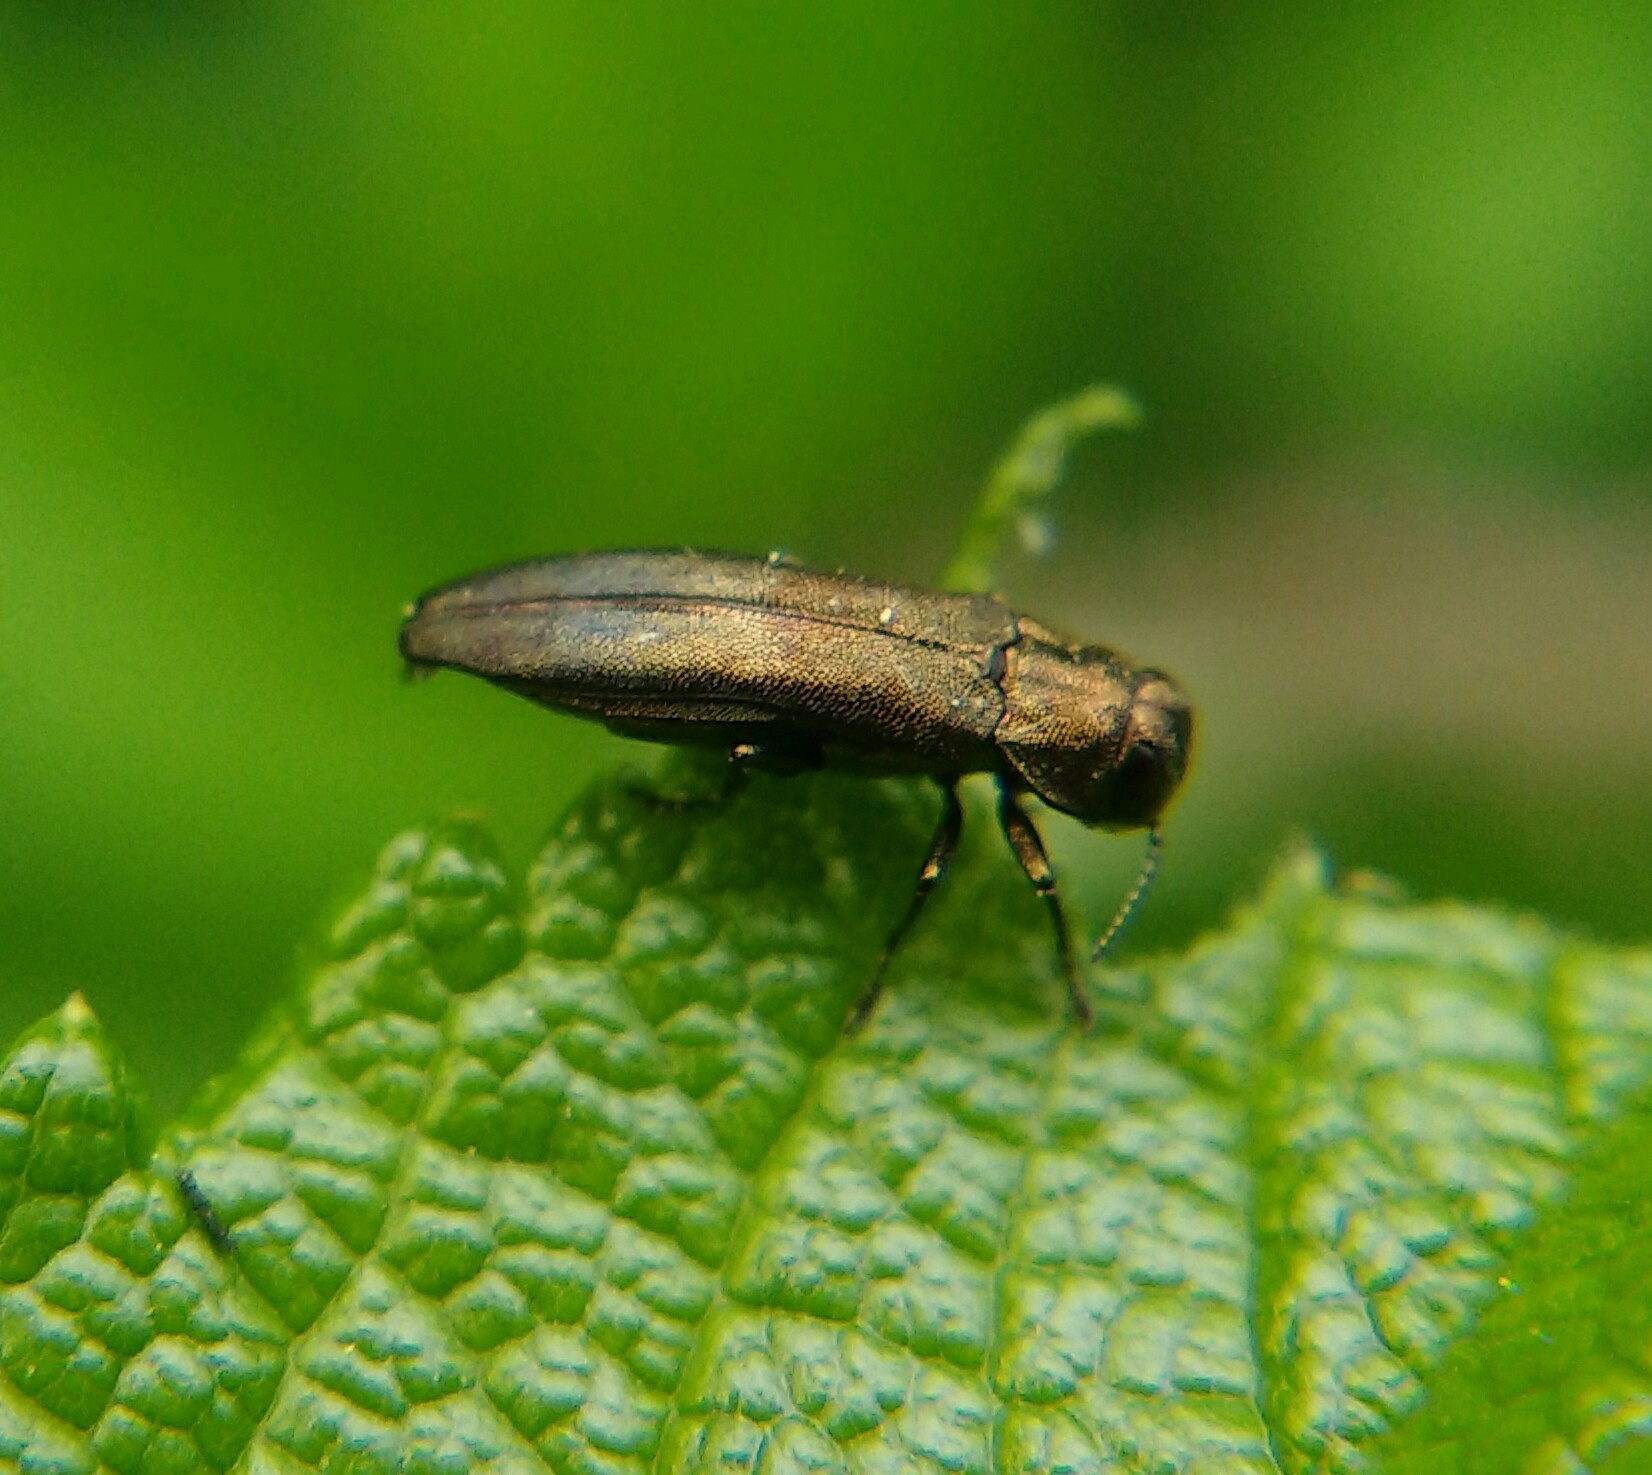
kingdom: Animalia
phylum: Arthropoda
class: Insecta
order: Coleoptera
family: Buprestidae
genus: Agrilus
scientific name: Agrilus cuprescens
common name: Rose stem girdler
